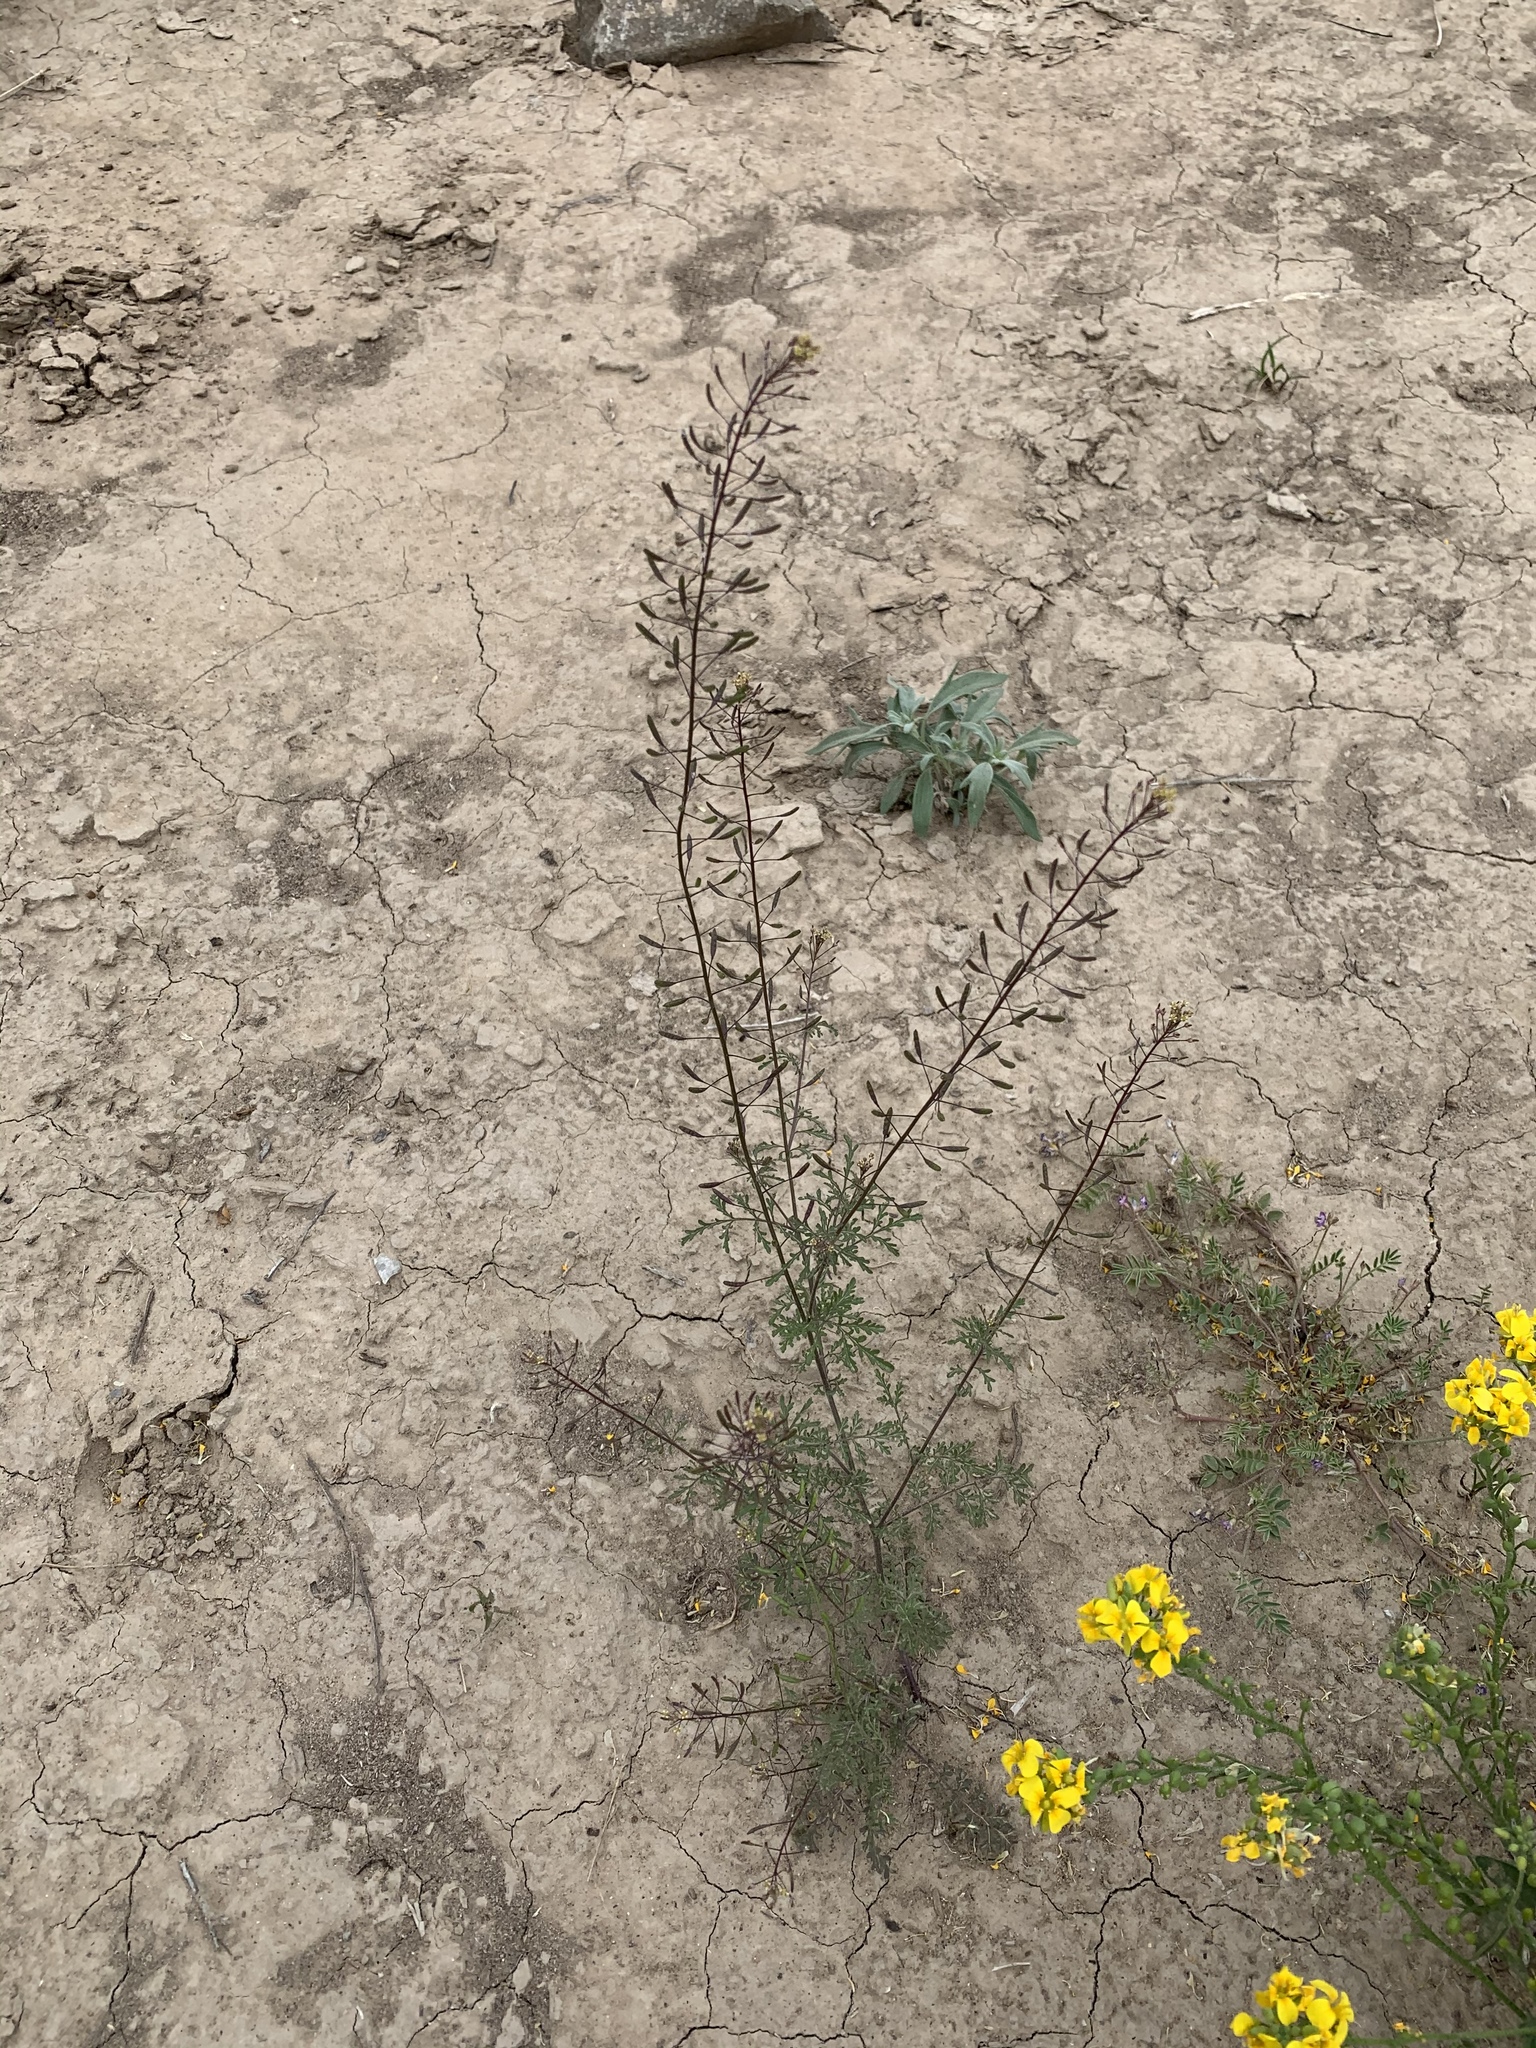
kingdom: Plantae
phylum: Tracheophyta
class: Magnoliopsida
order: Brassicales
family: Brassicaceae
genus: Descurainia
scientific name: Descurainia pinnata
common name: Western tansy mustard
